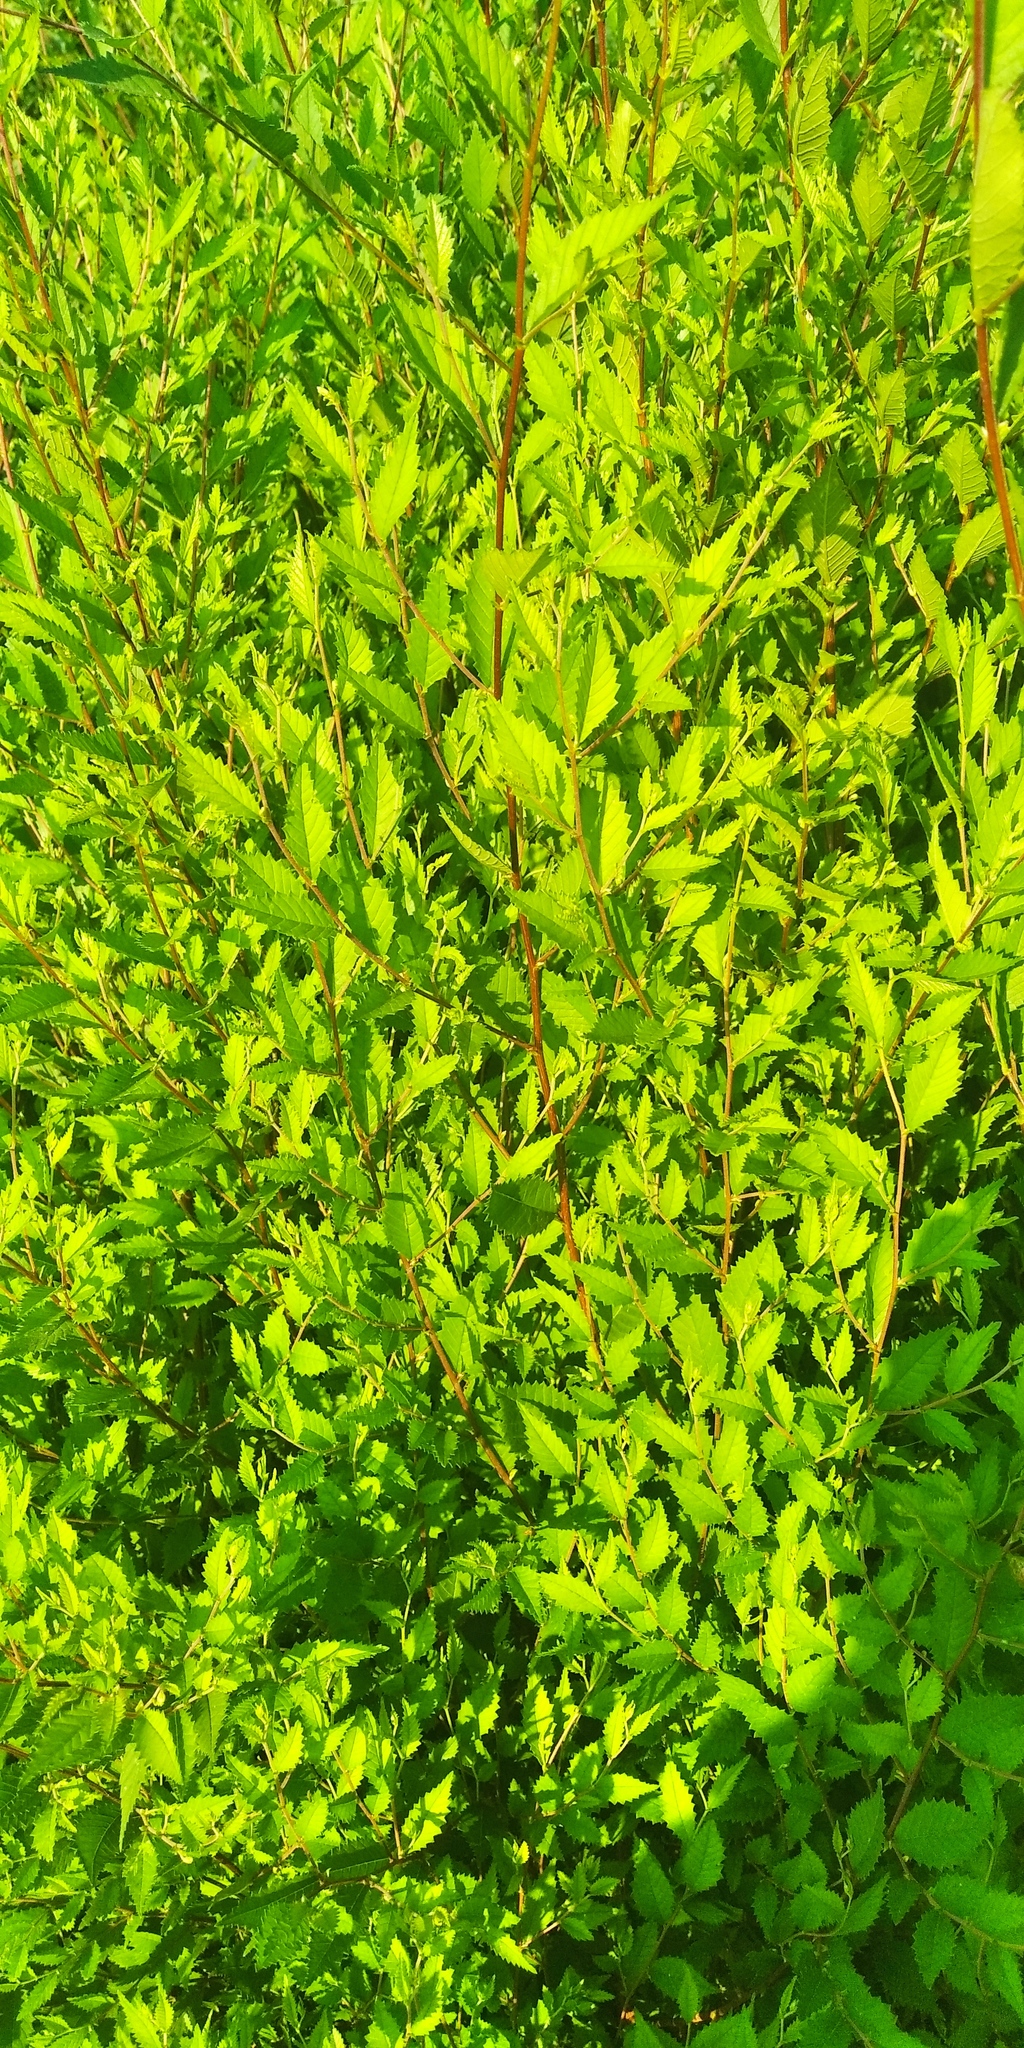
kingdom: Plantae
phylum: Tracheophyta
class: Magnoliopsida
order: Rosales
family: Ulmaceae
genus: Ulmus
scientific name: Ulmus pumila
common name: Siberian elm
